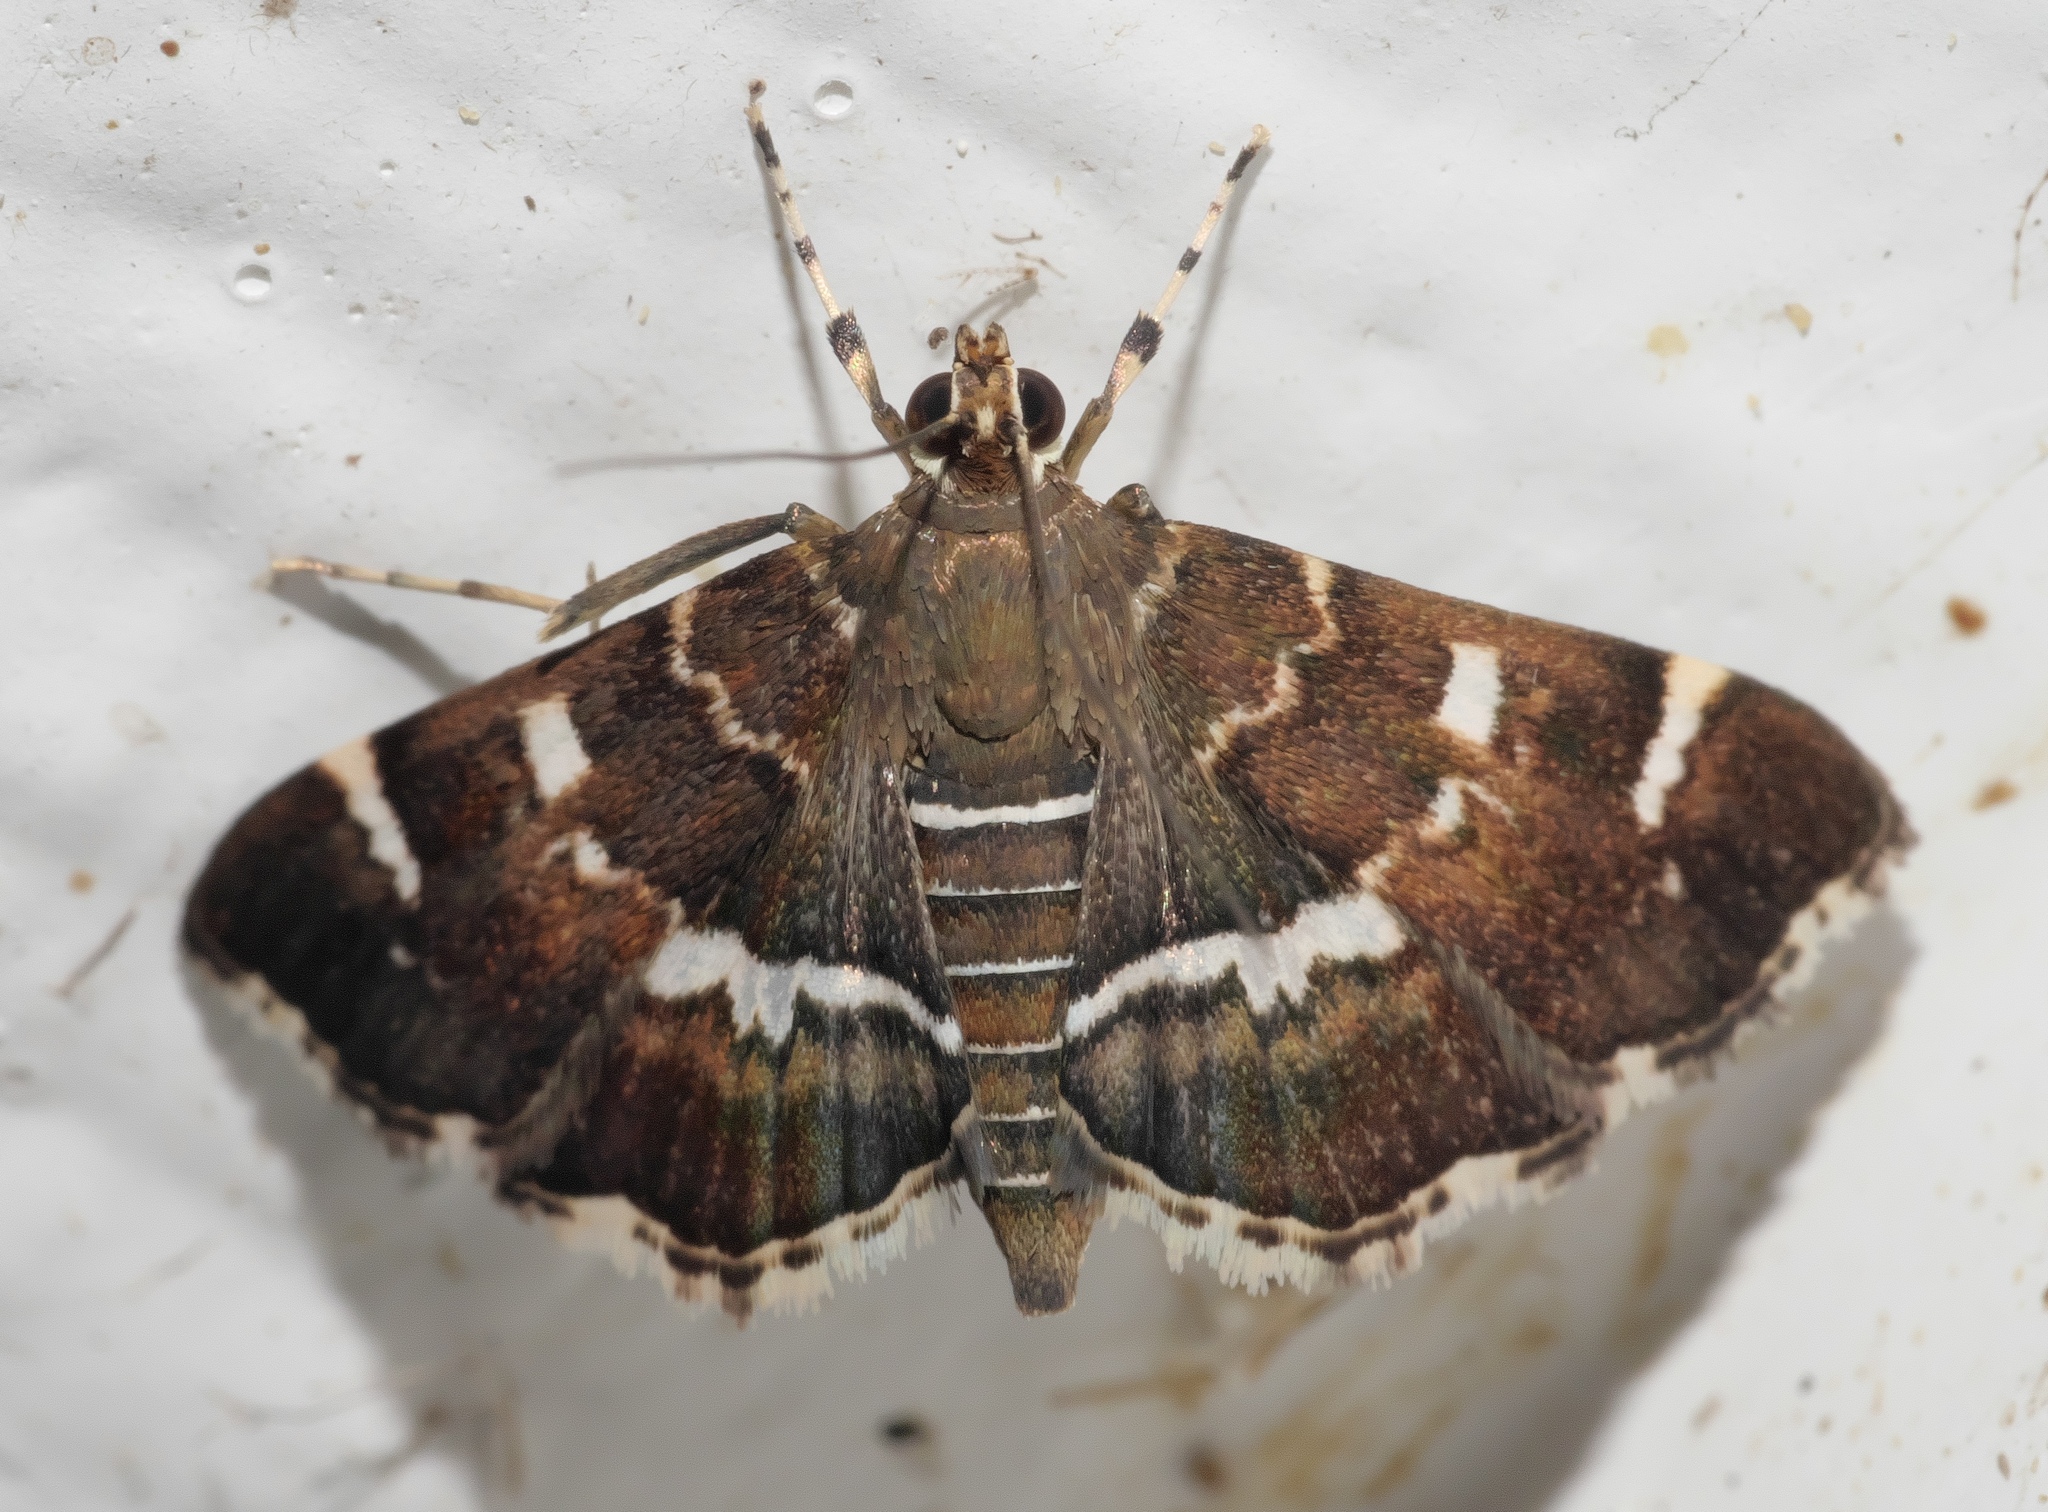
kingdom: Animalia
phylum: Arthropoda
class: Insecta
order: Lepidoptera
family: Crambidae
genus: Hymenia
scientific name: Hymenia perspectalis
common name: Spotted beet webworm
